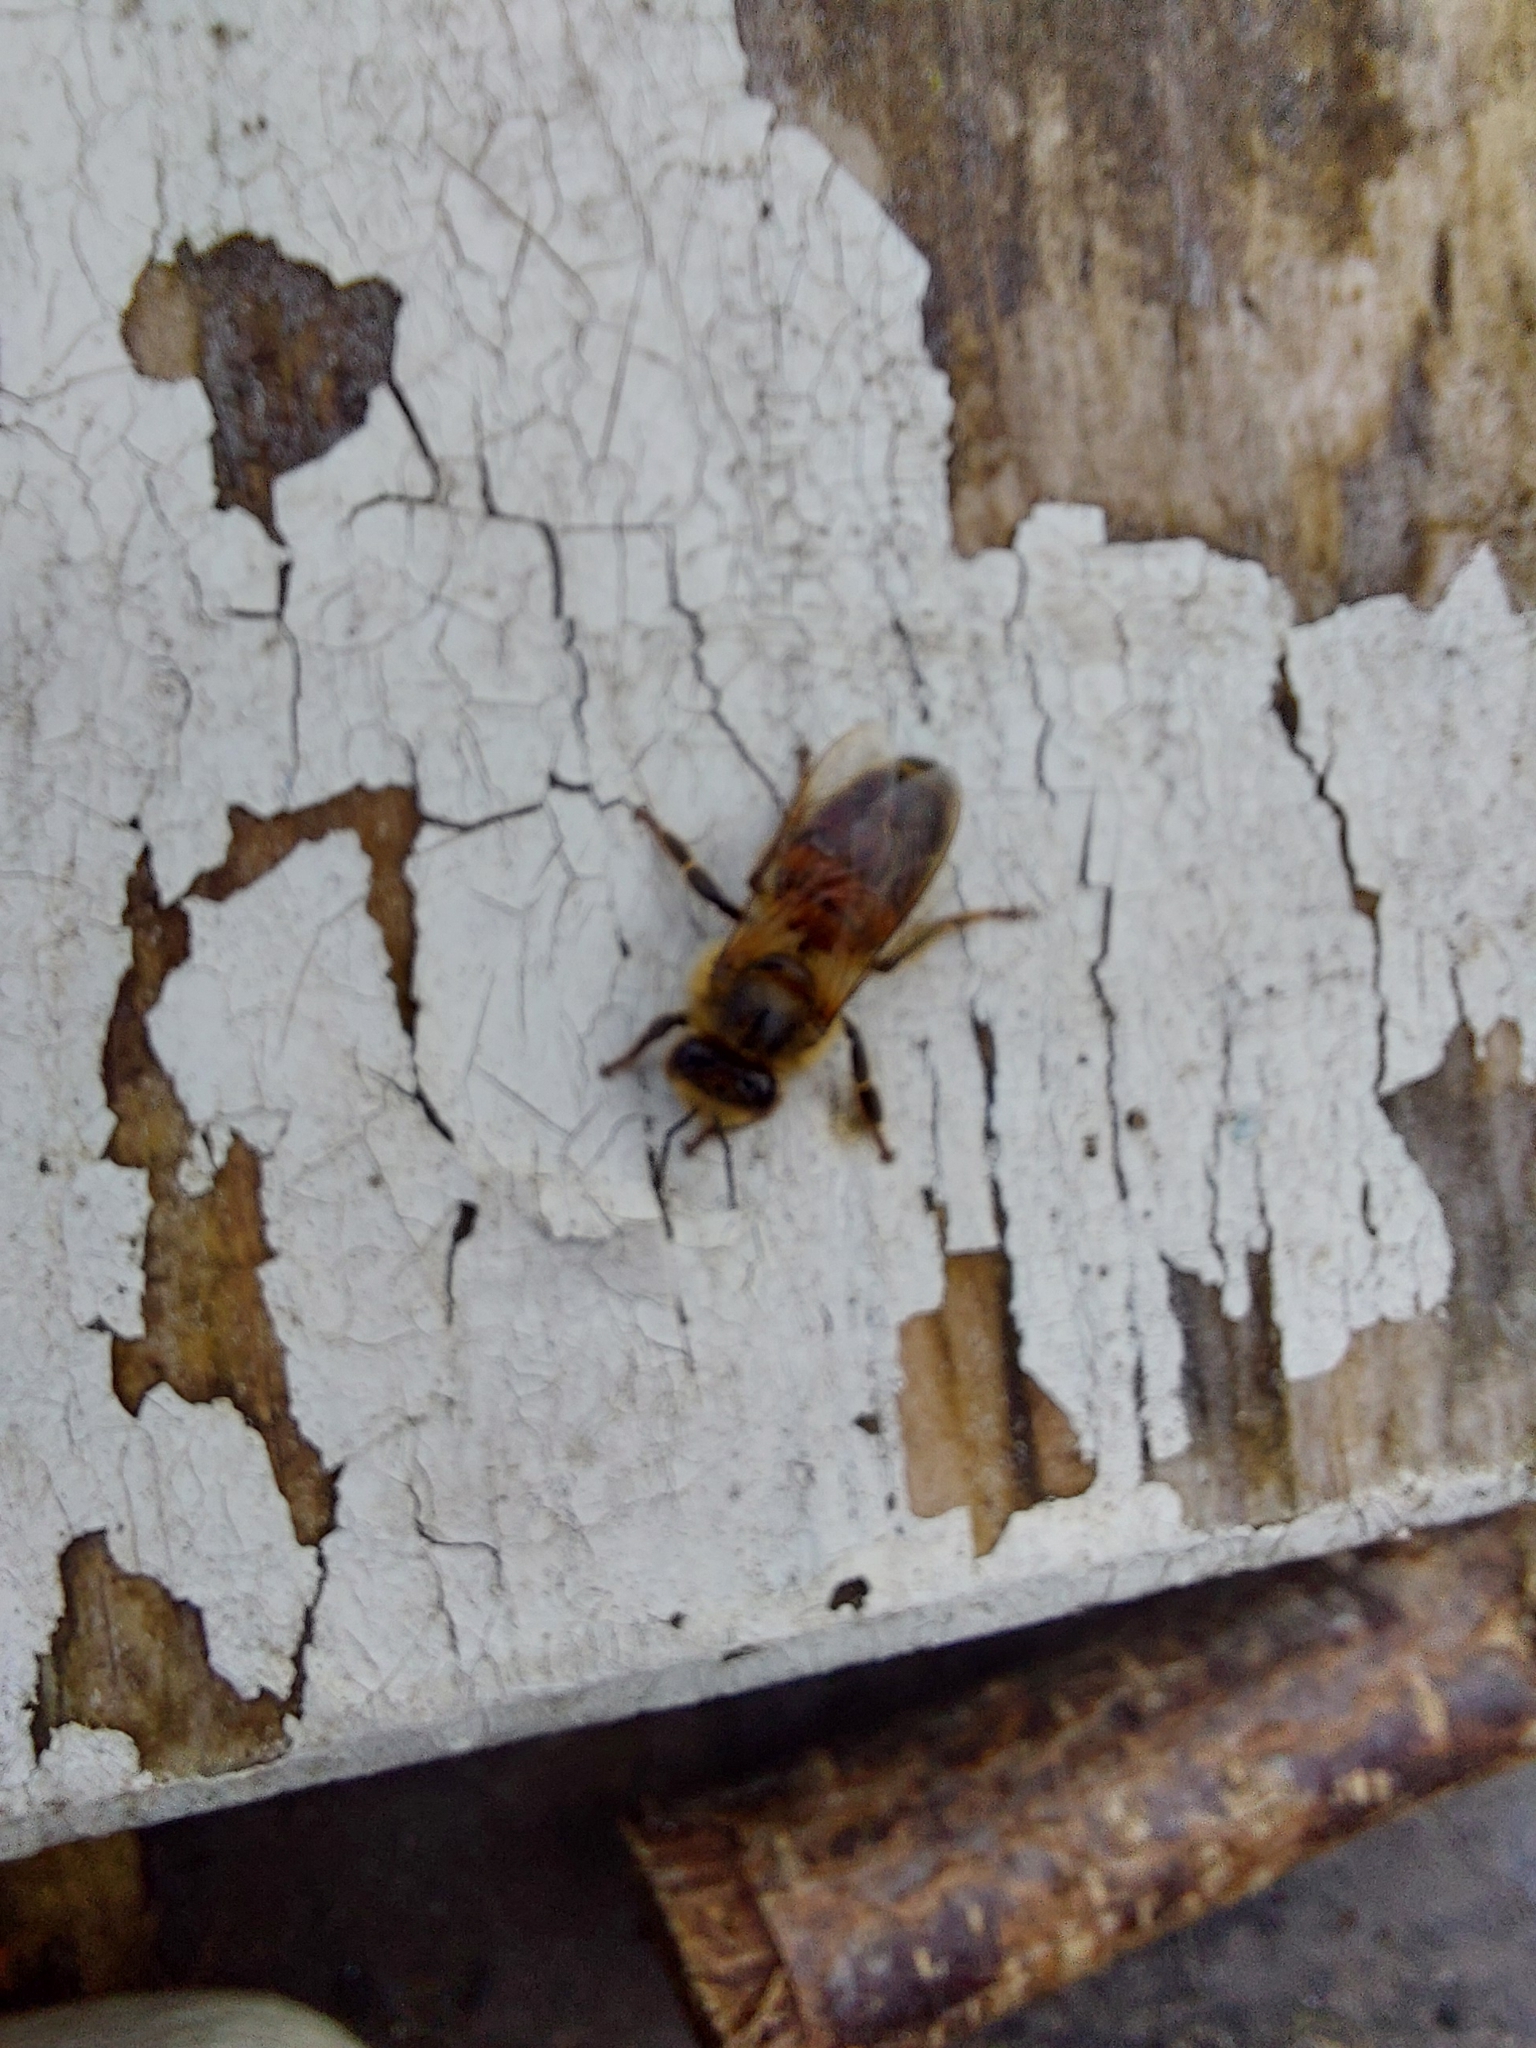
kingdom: Animalia
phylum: Arthropoda
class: Insecta
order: Hymenoptera
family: Apidae
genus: Apis
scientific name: Apis mellifera
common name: Honey bee
